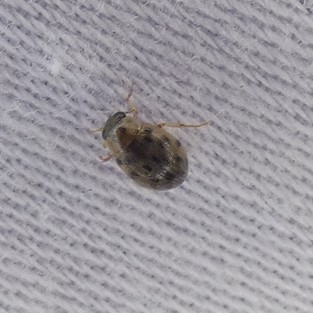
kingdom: Animalia
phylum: Arthropoda
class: Insecta
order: Coleoptera
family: Hydrophilidae
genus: Berosus
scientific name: Berosus pantherinus
